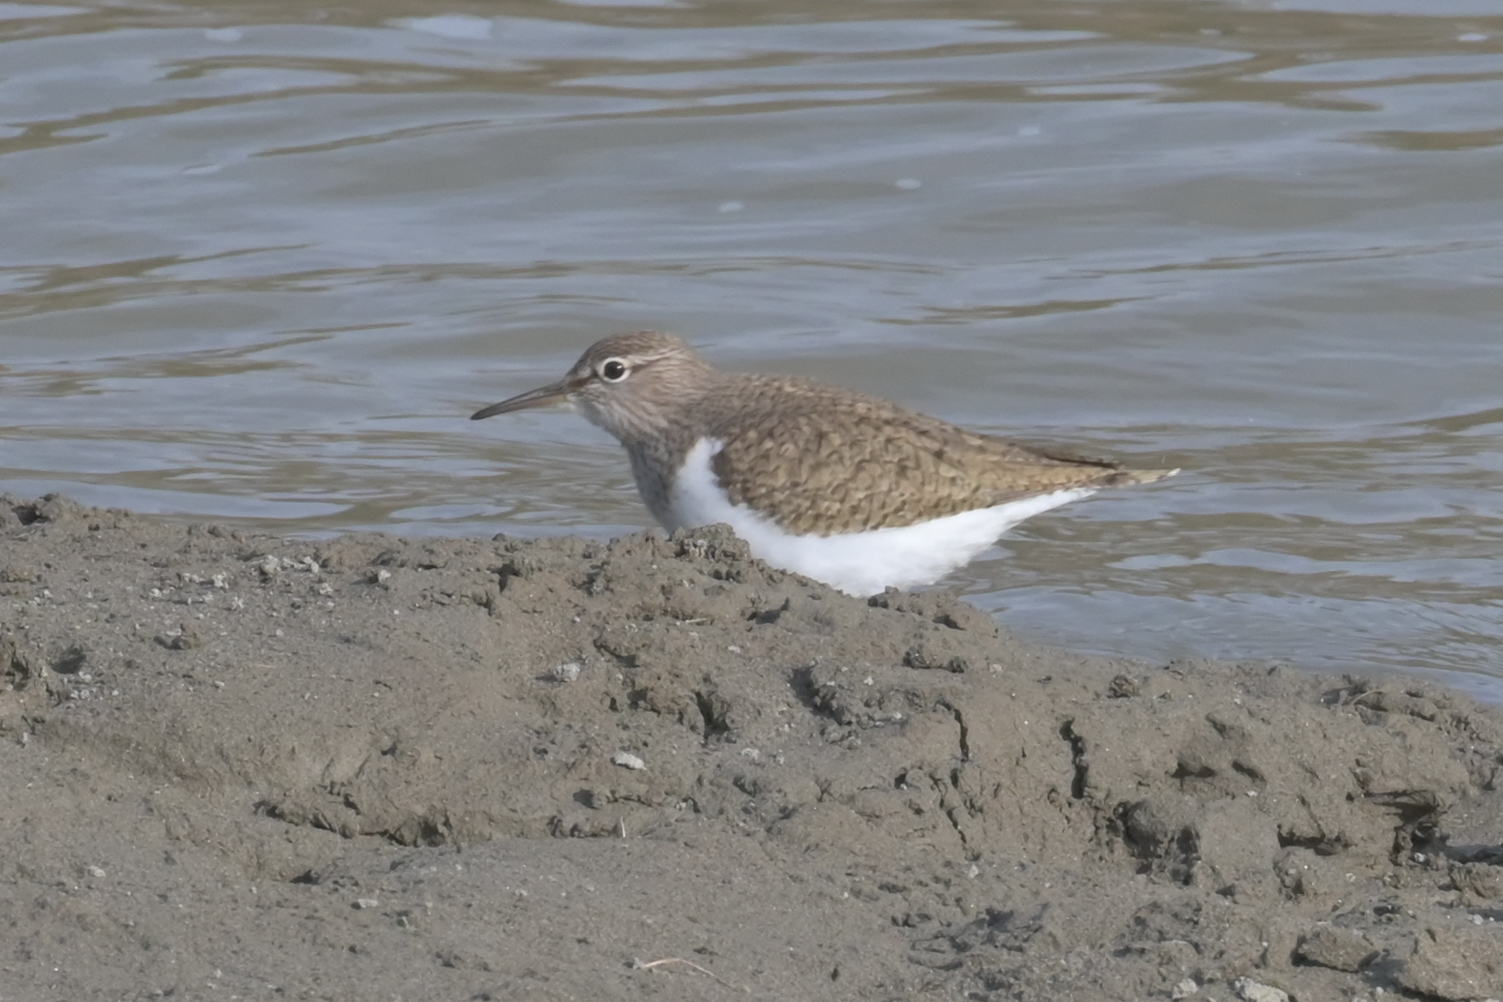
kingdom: Animalia
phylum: Chordata
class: Aves
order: Charadriiformes
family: Scolopacidae
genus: Actitis
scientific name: Actitis hypoleucos
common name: Common sandpiper
